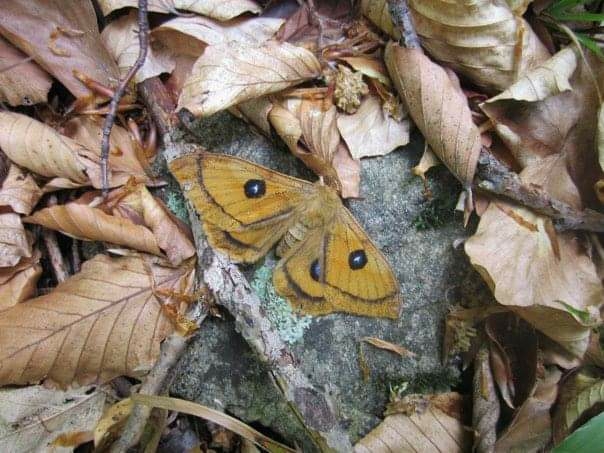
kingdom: Animalia
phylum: Arthropoda
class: Insecta
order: Lepidoptera
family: Saturniidae
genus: Aglia
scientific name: Aglia tau
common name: Tau emperor
